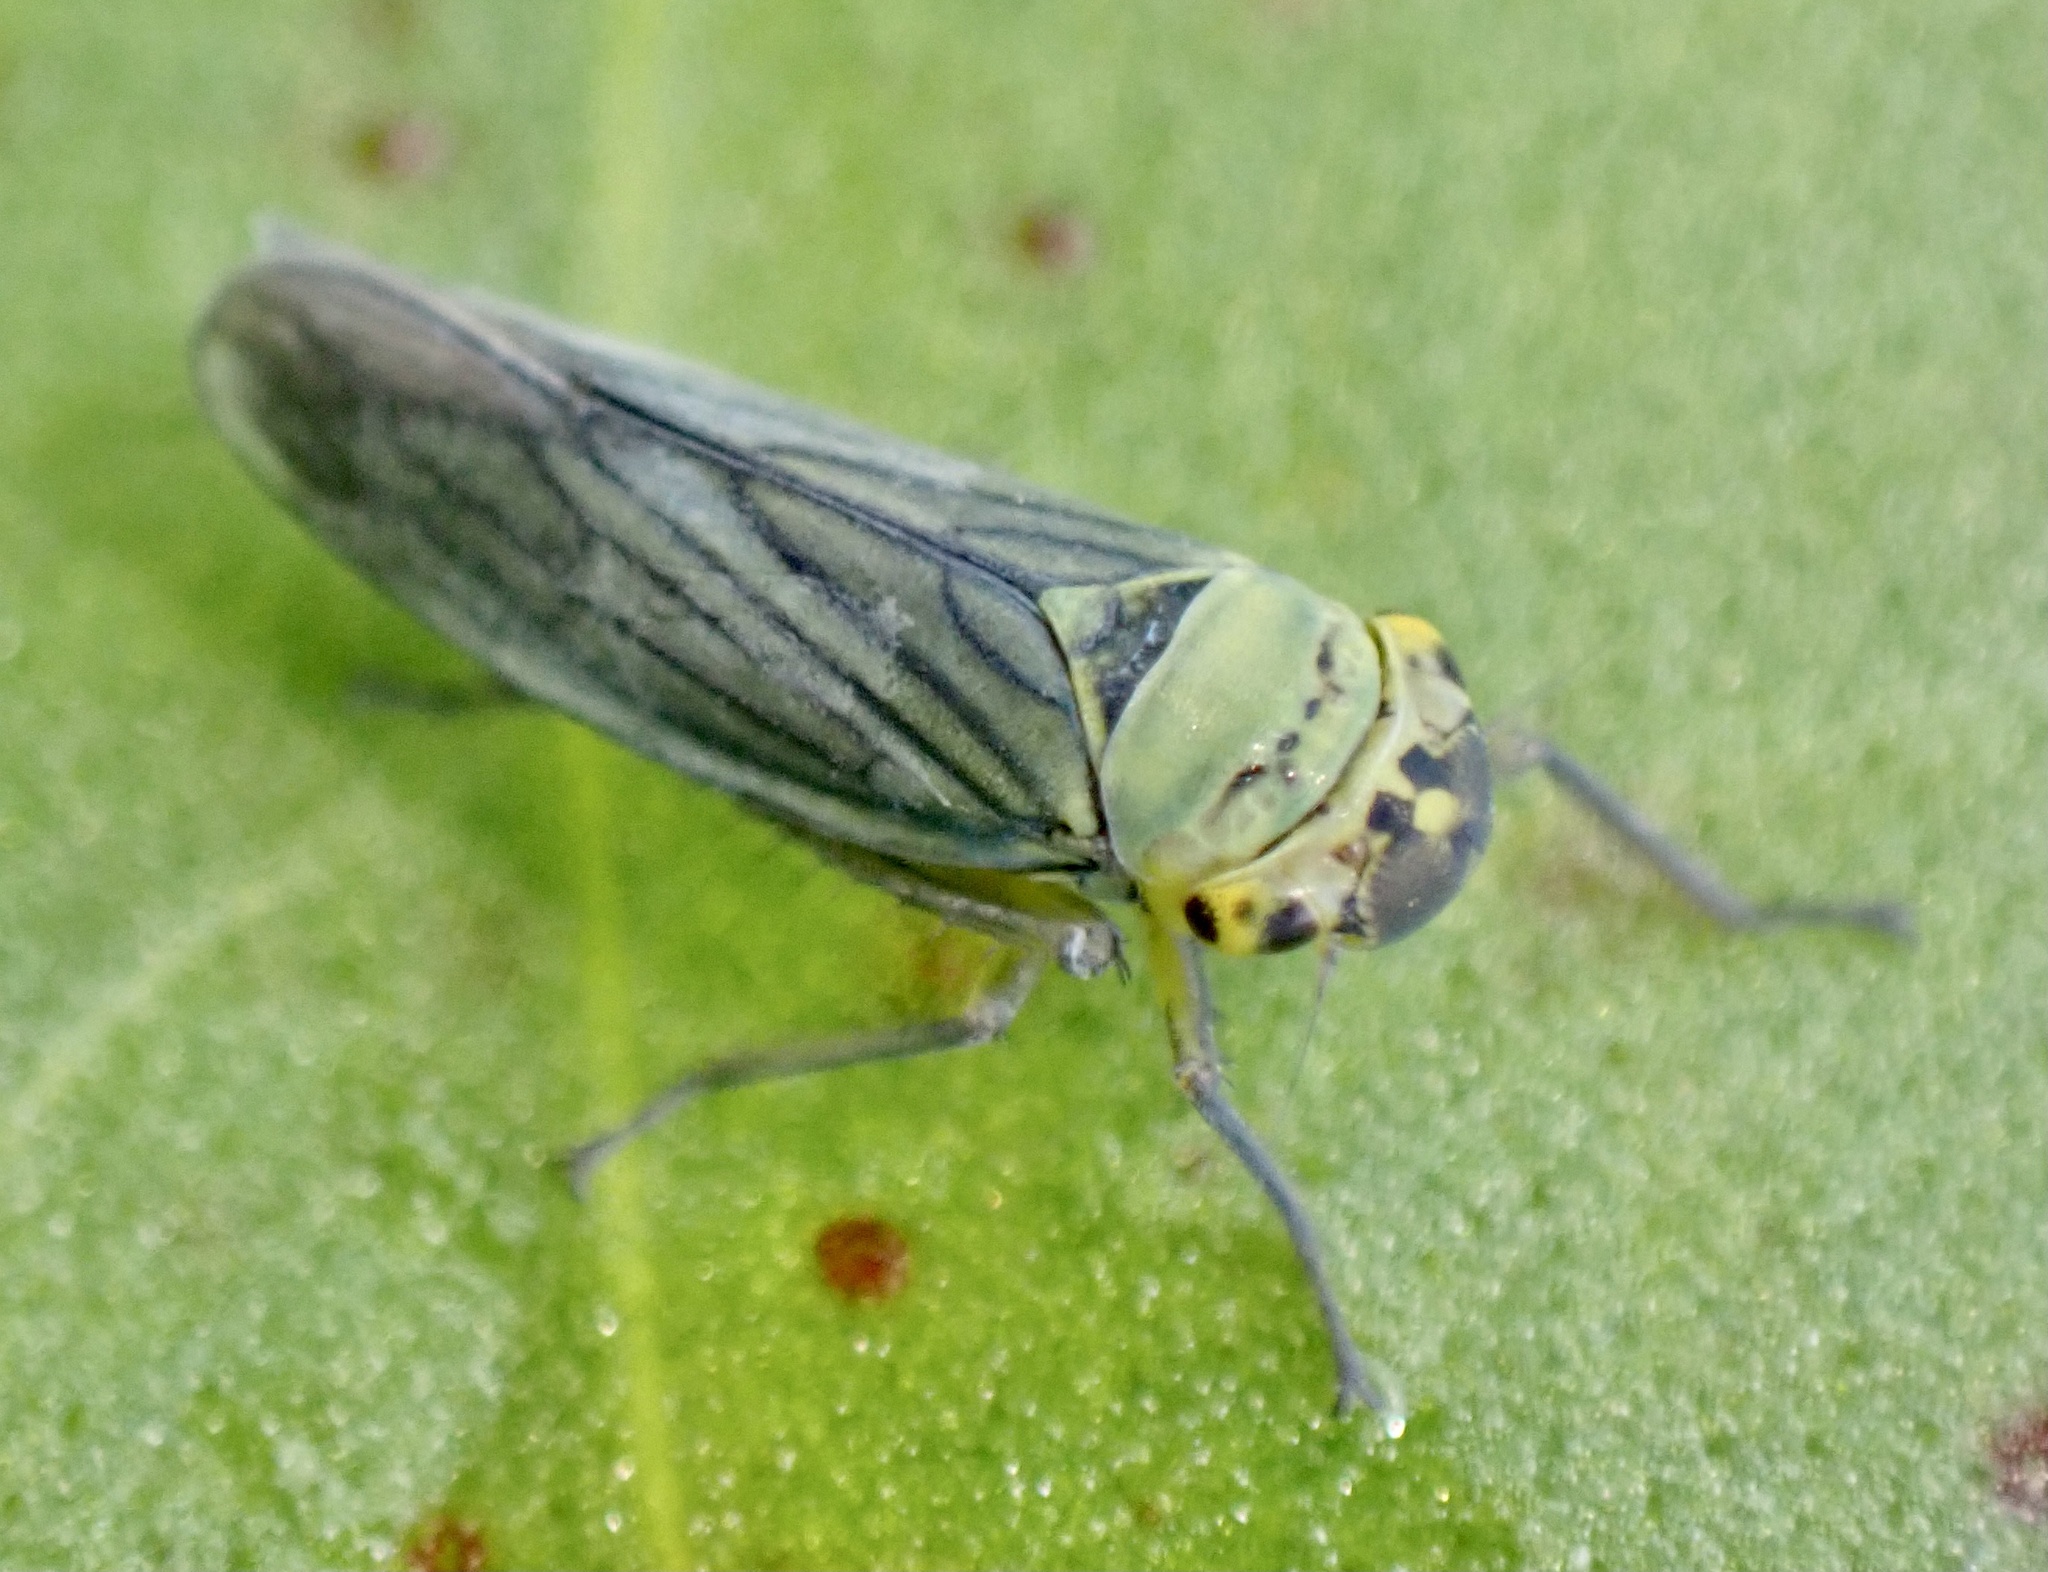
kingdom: Animalia
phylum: Arthropoda
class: Insecta
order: Hemiptera
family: Cicadellidae
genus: Cicadella
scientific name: Cicadella viridis
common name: Leafhopper
